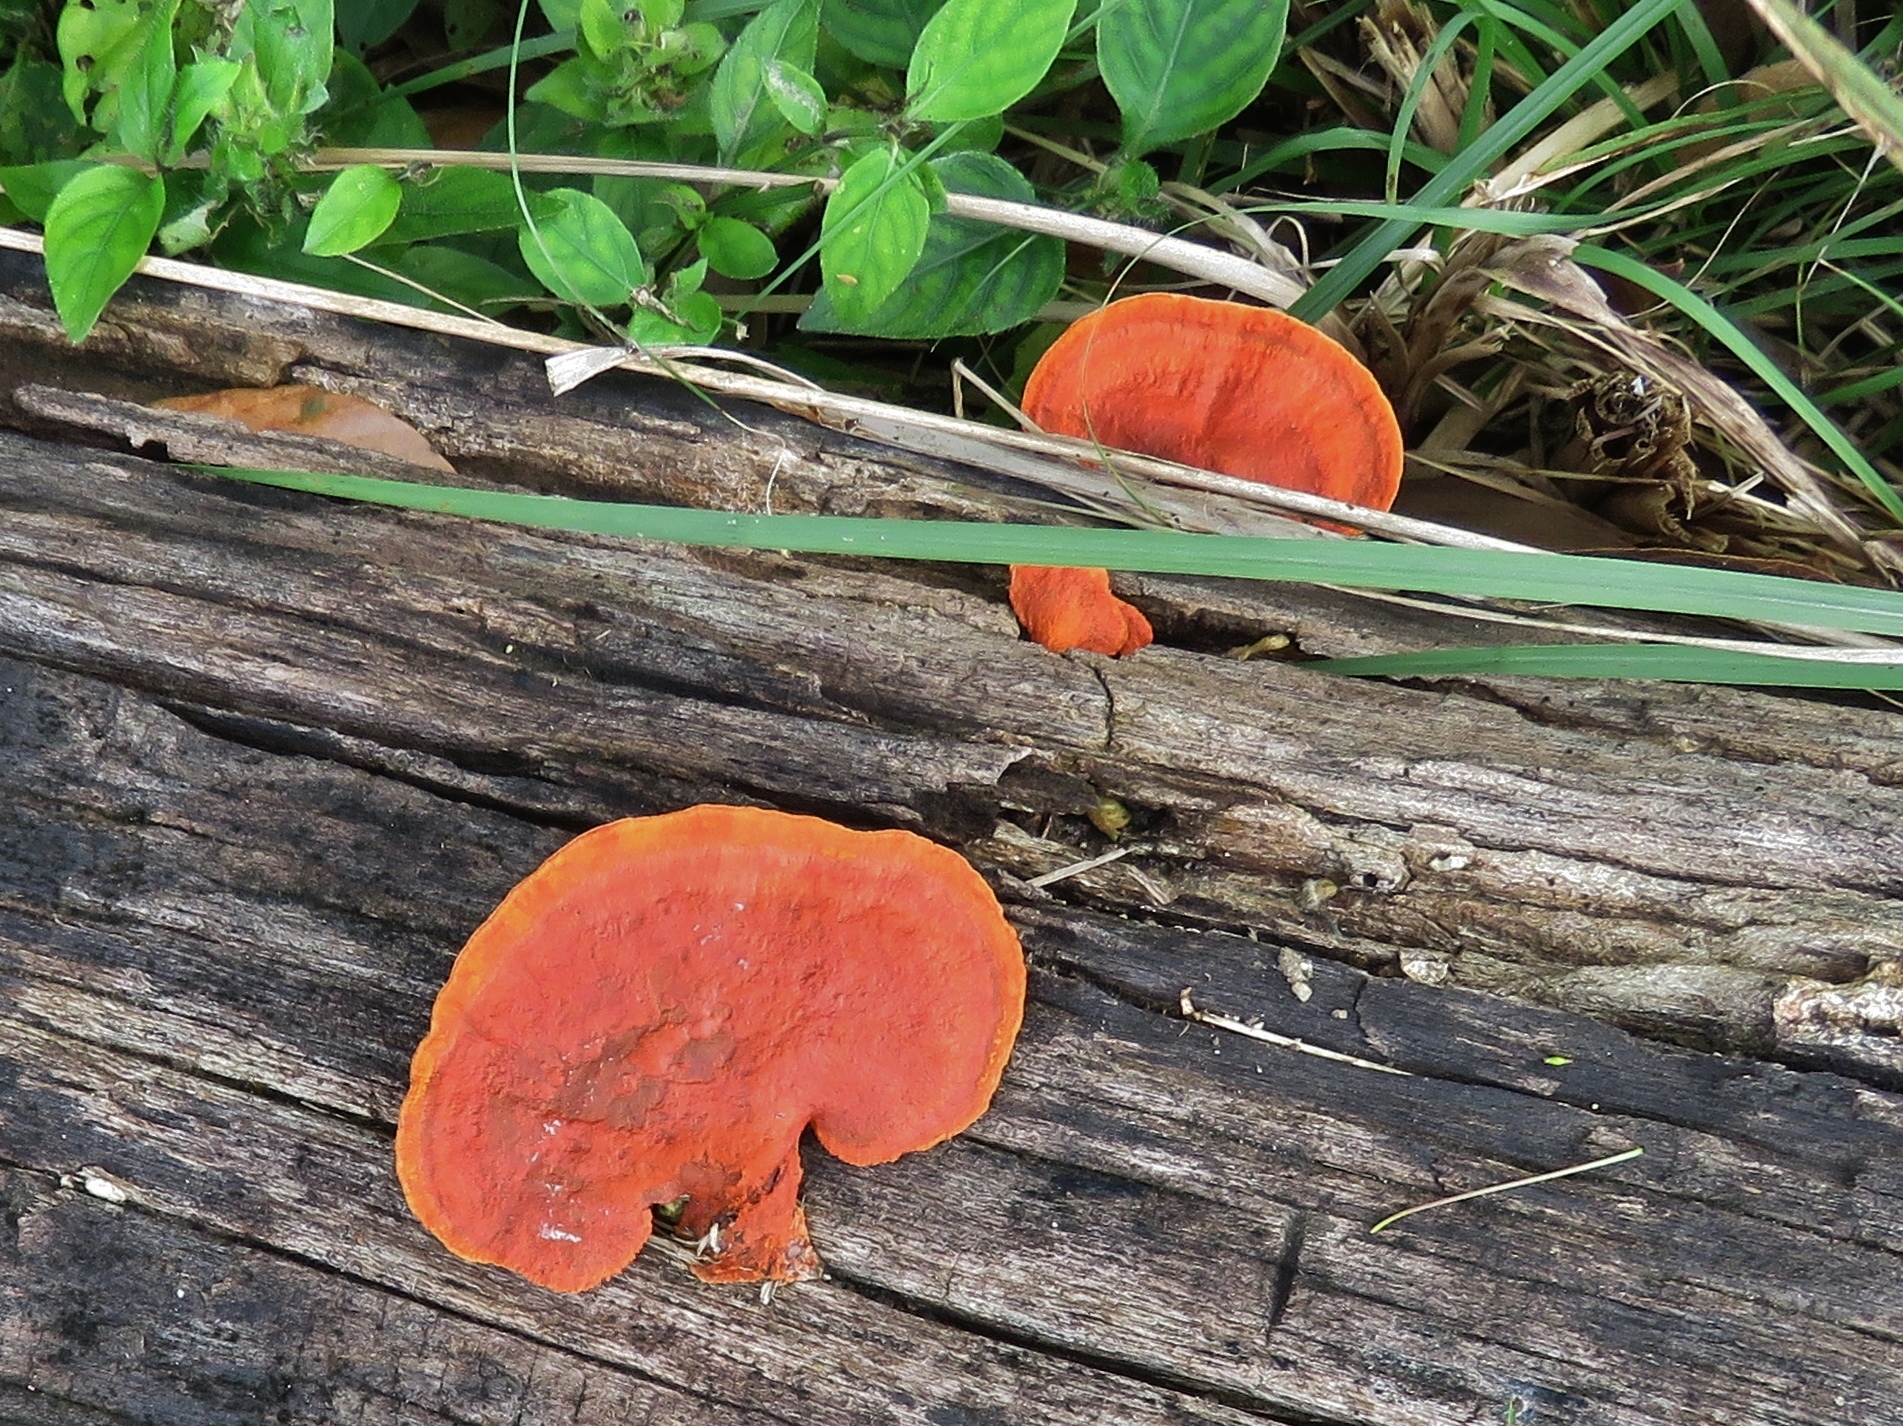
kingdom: Fungi
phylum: Basidiomycota
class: Agaricomycetes
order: Polyporales
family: Polyporaceae
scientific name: Polyporaceae
